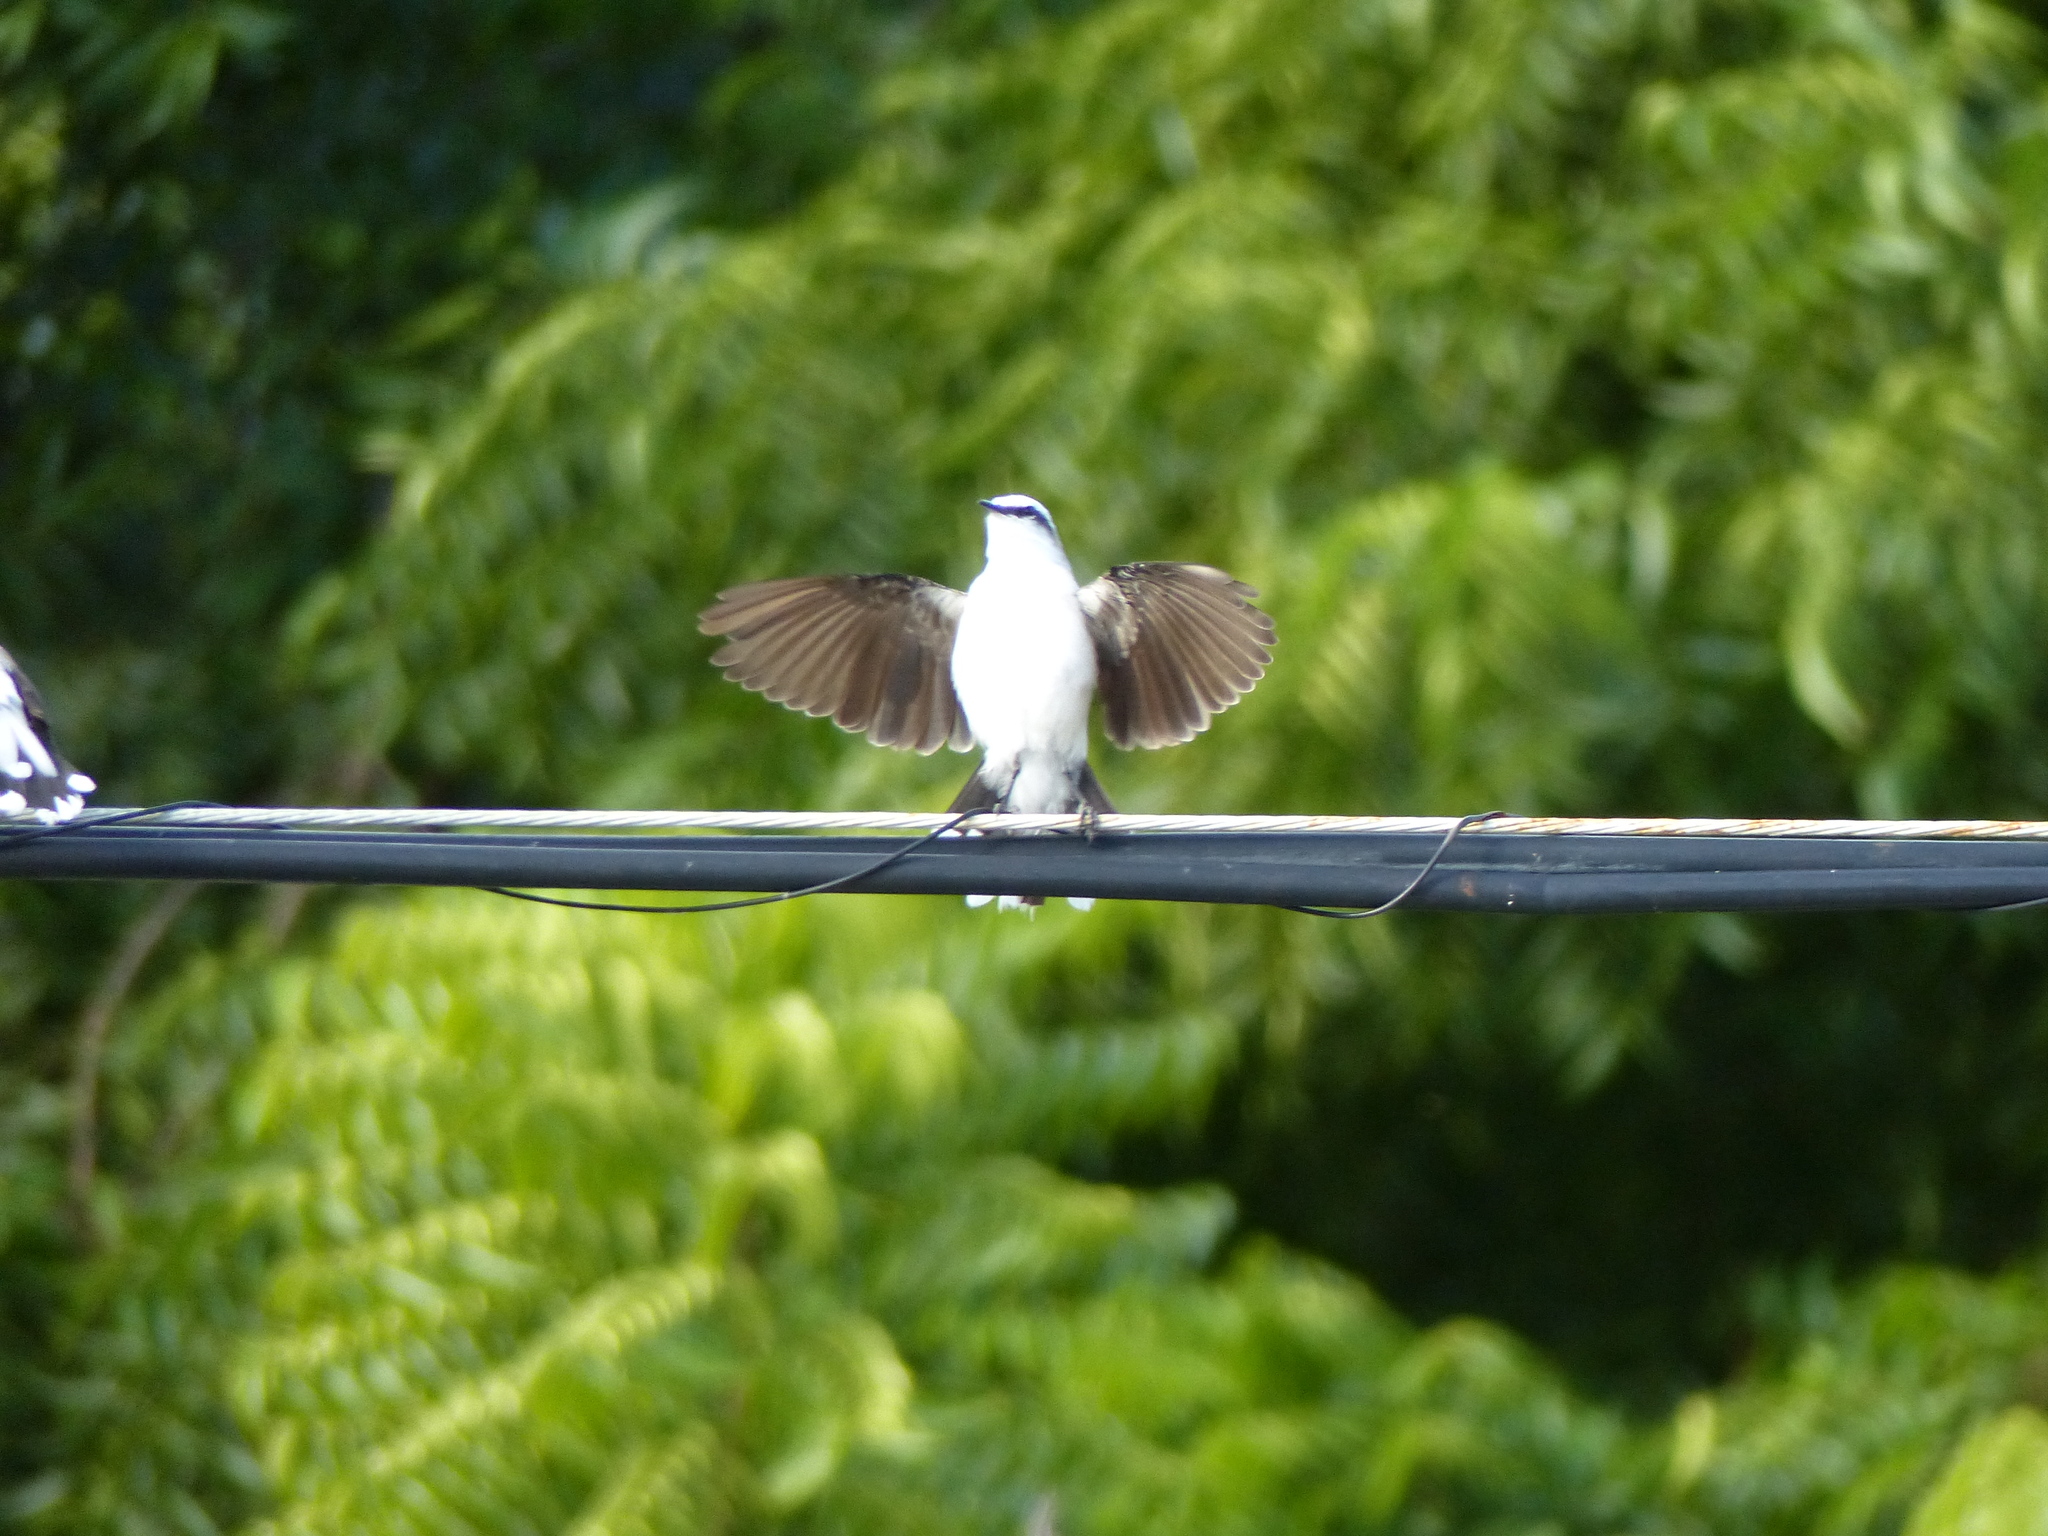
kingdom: Animalia
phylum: Chordata
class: Aves
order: Passeriformes
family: Tyrannidae
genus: Fluvicola
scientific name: Fluvicola nengeta
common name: Masked water tyrant
